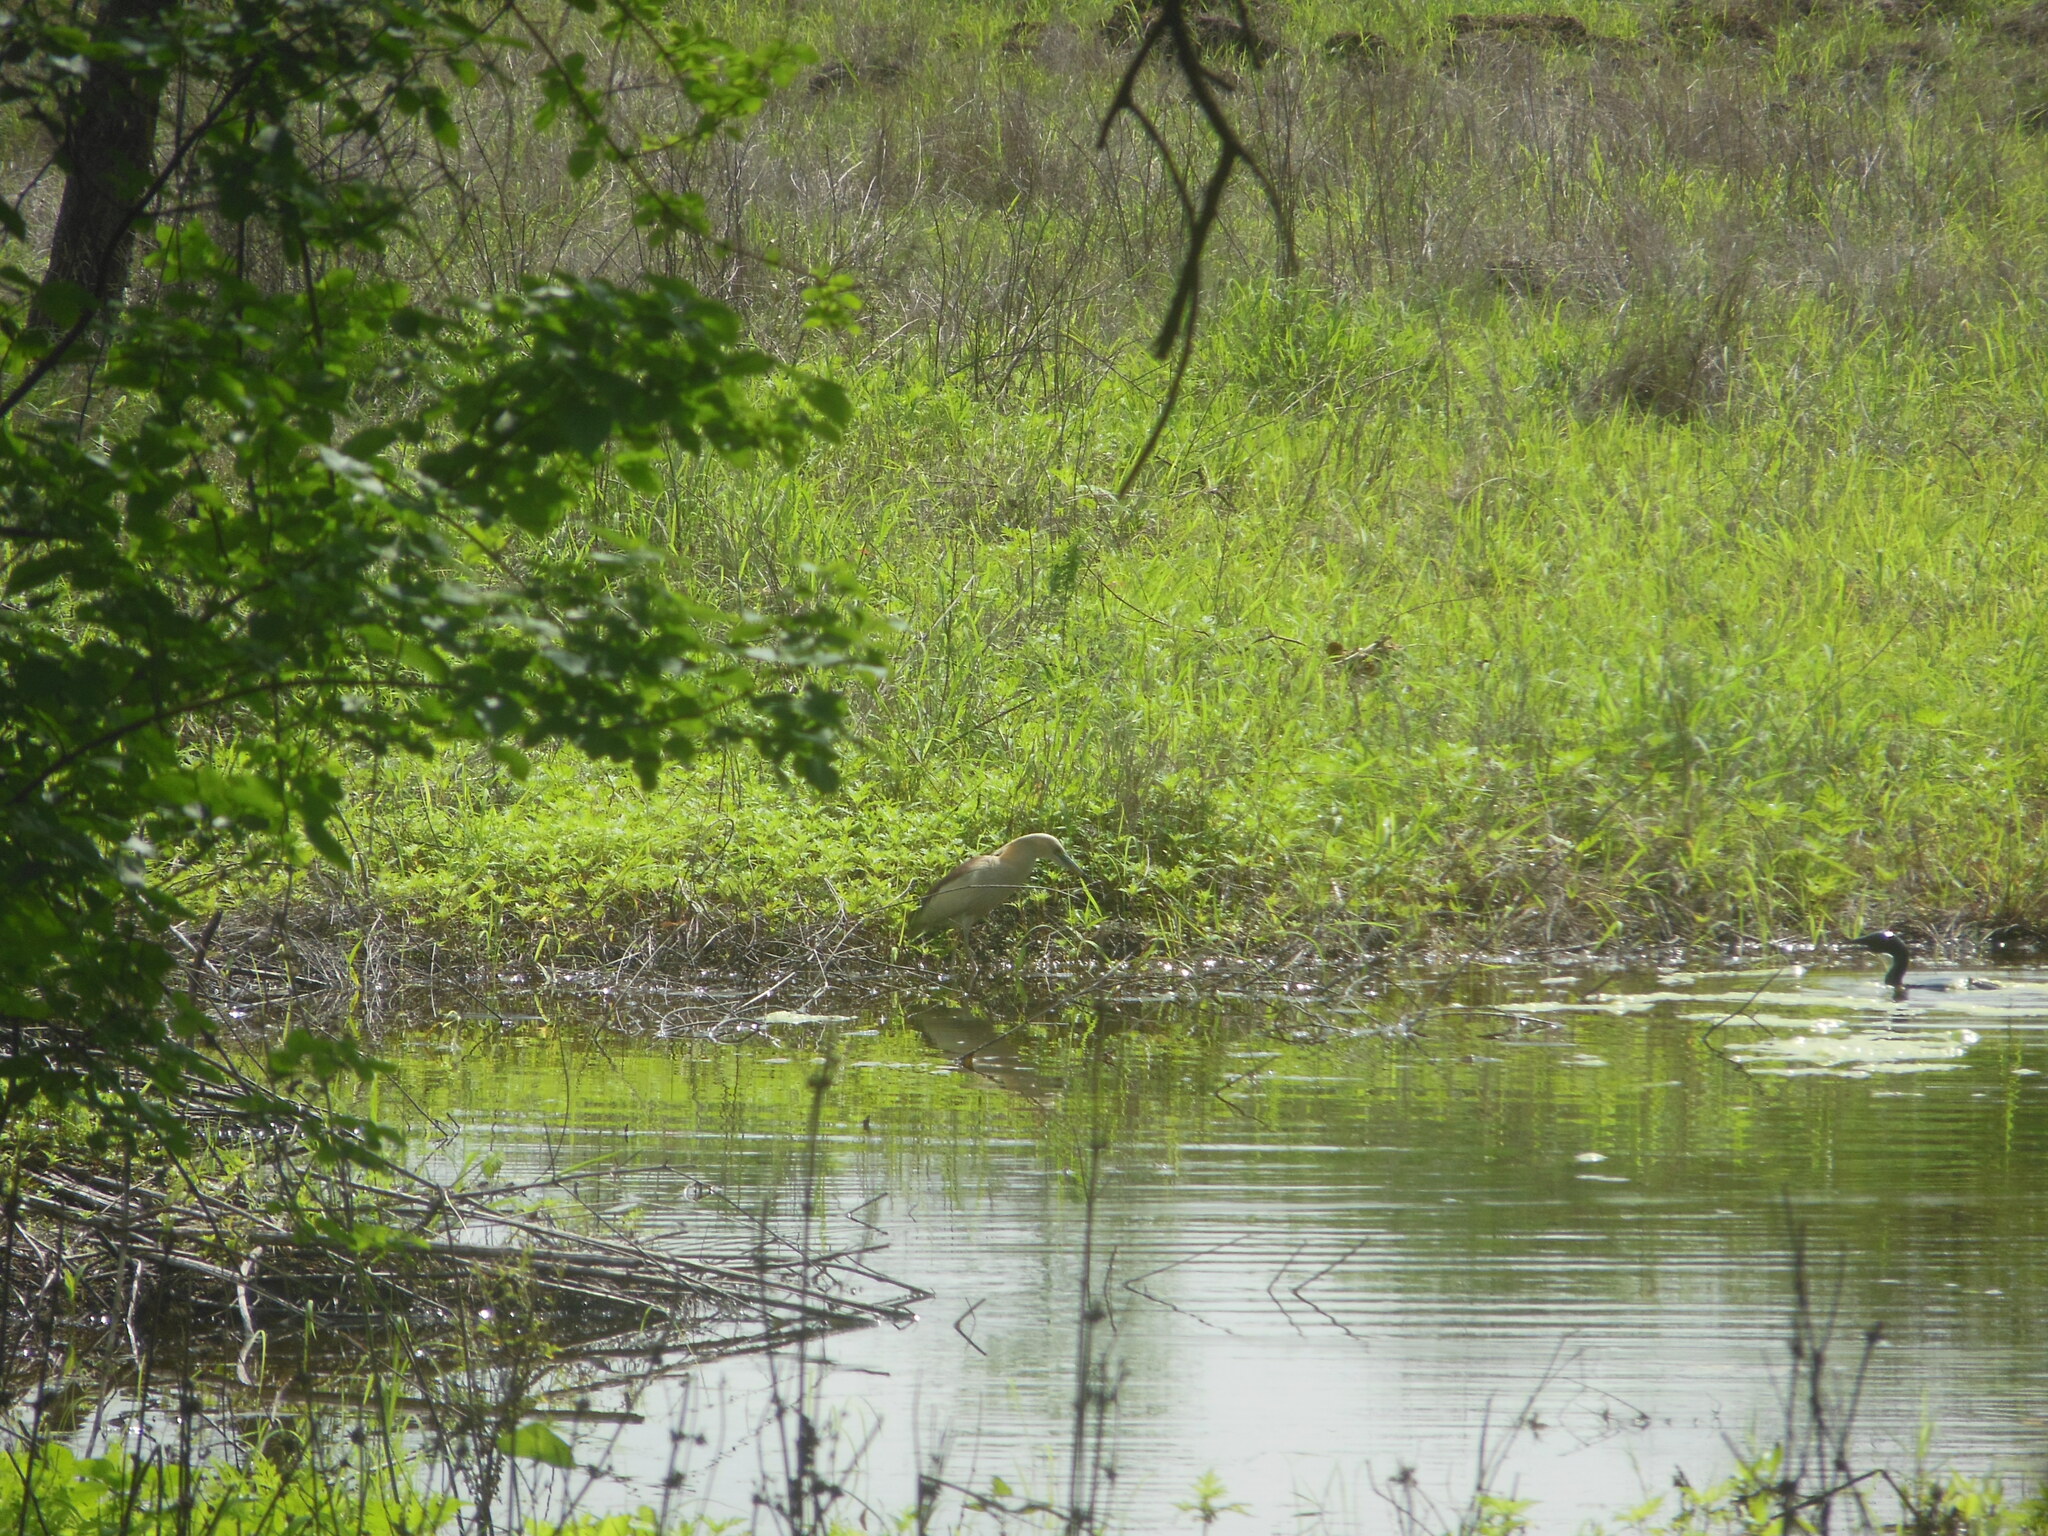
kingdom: Animalia
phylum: Chordata
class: Aves
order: Pelecaniformes
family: Ardeidae
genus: Ardeola
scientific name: Ardeola grayii
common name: Indian pond heron
